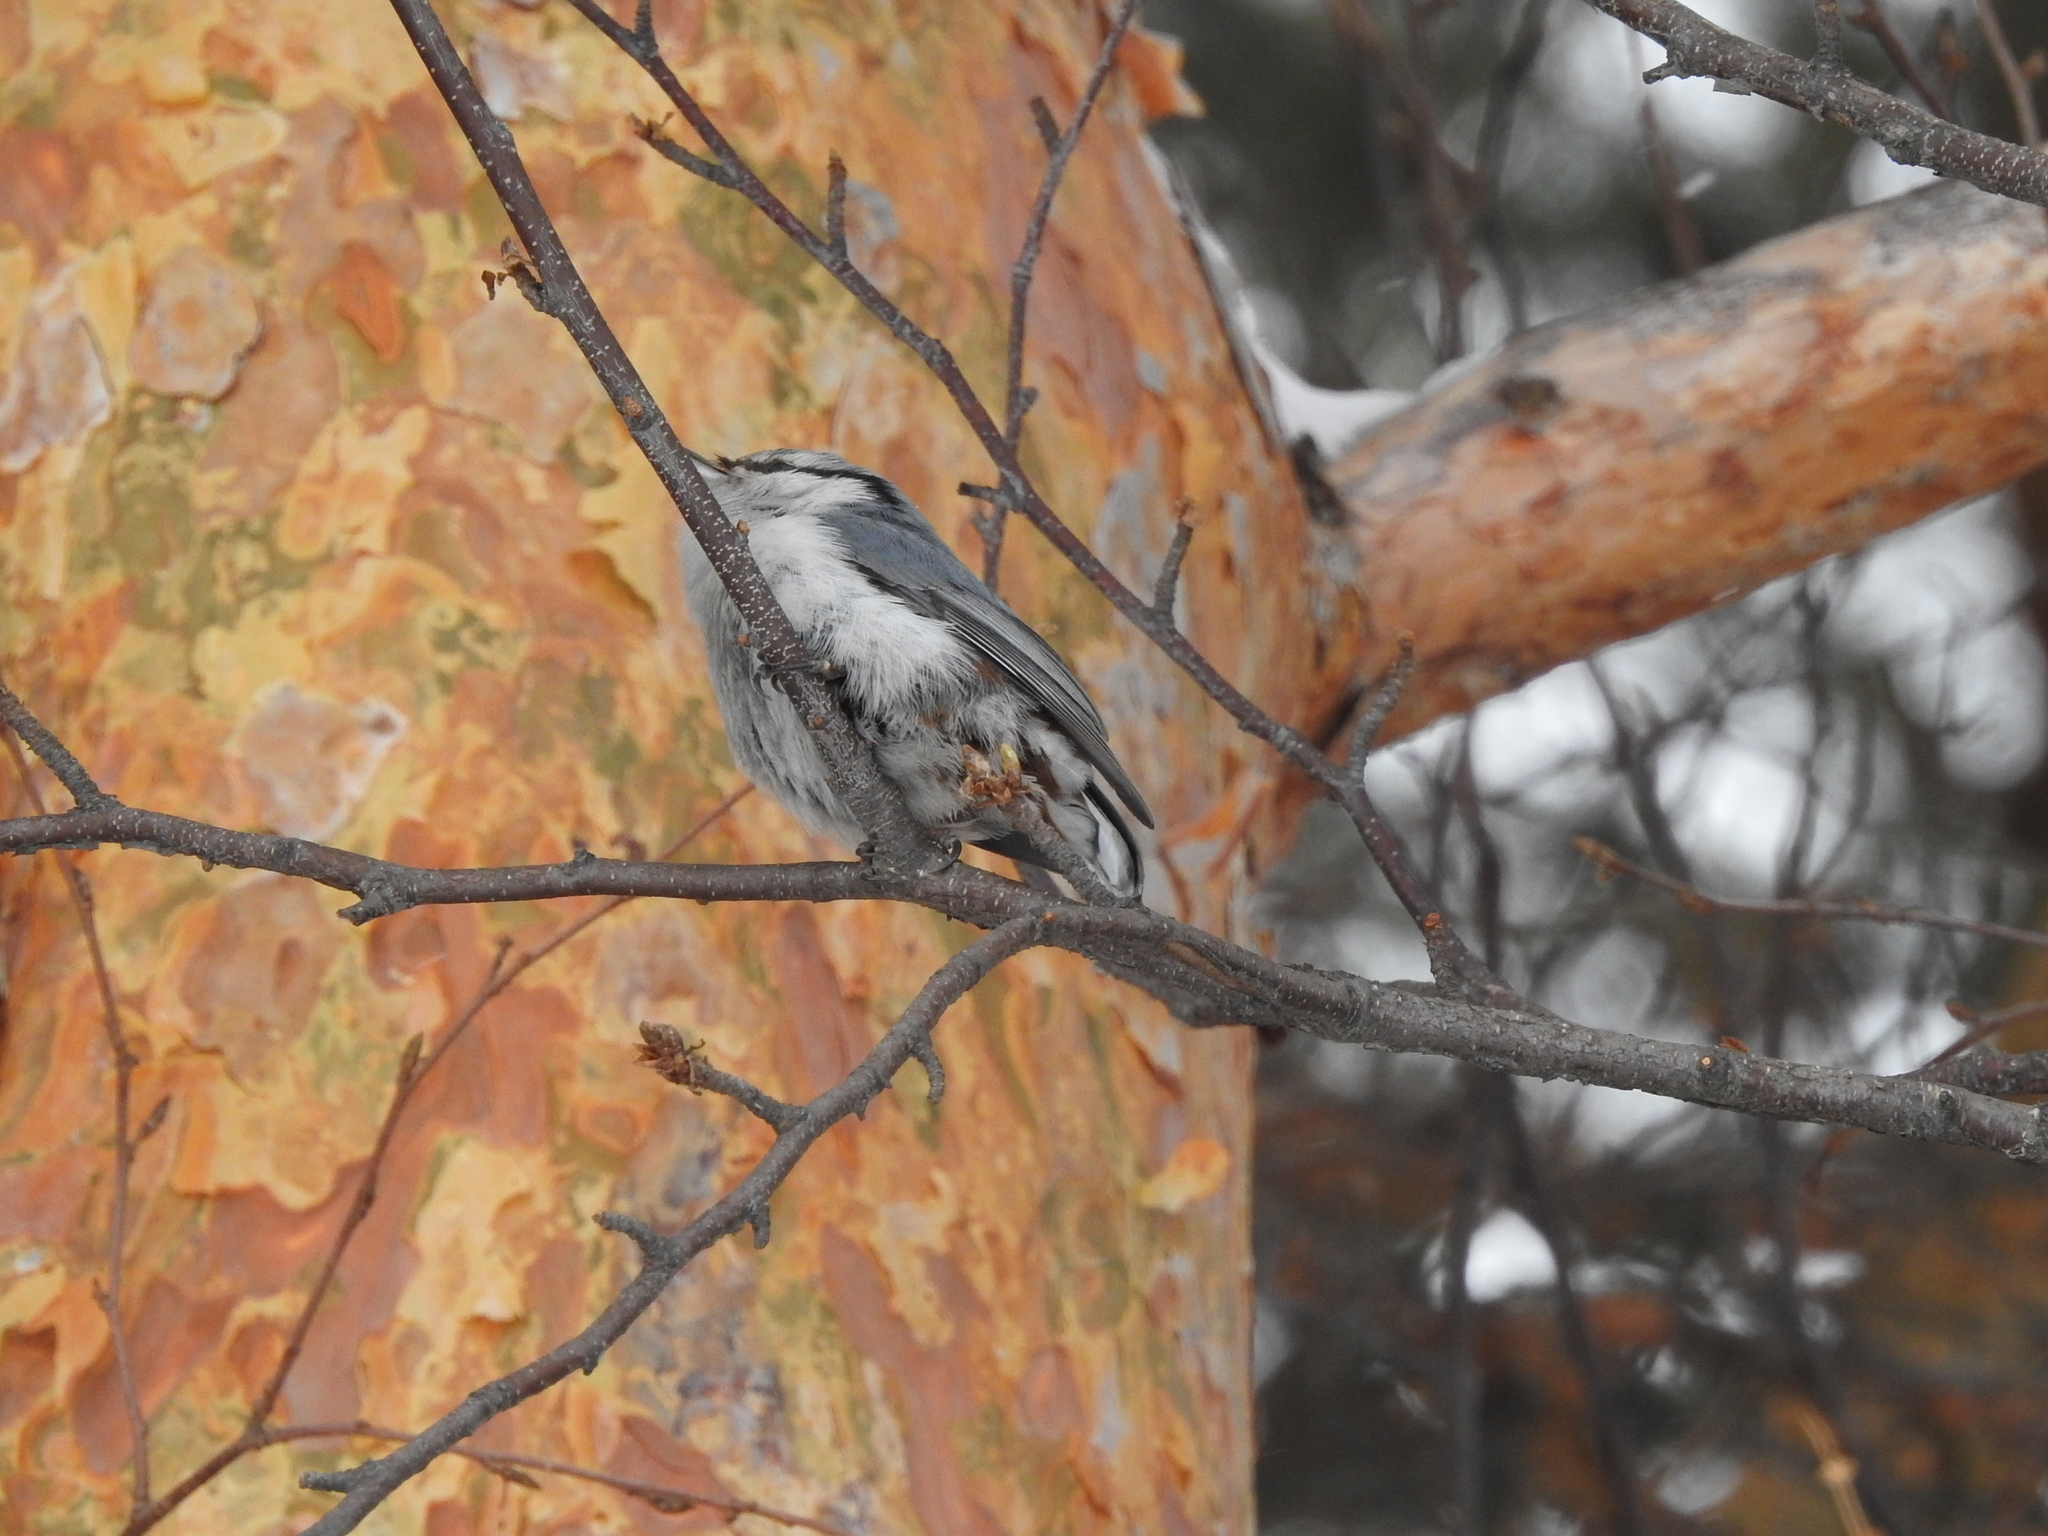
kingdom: Animalia
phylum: Chordata
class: Aves
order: Passeriformes
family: Sittidae
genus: Sitta
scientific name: Sitta europaea
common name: Eurasian nuthatch
